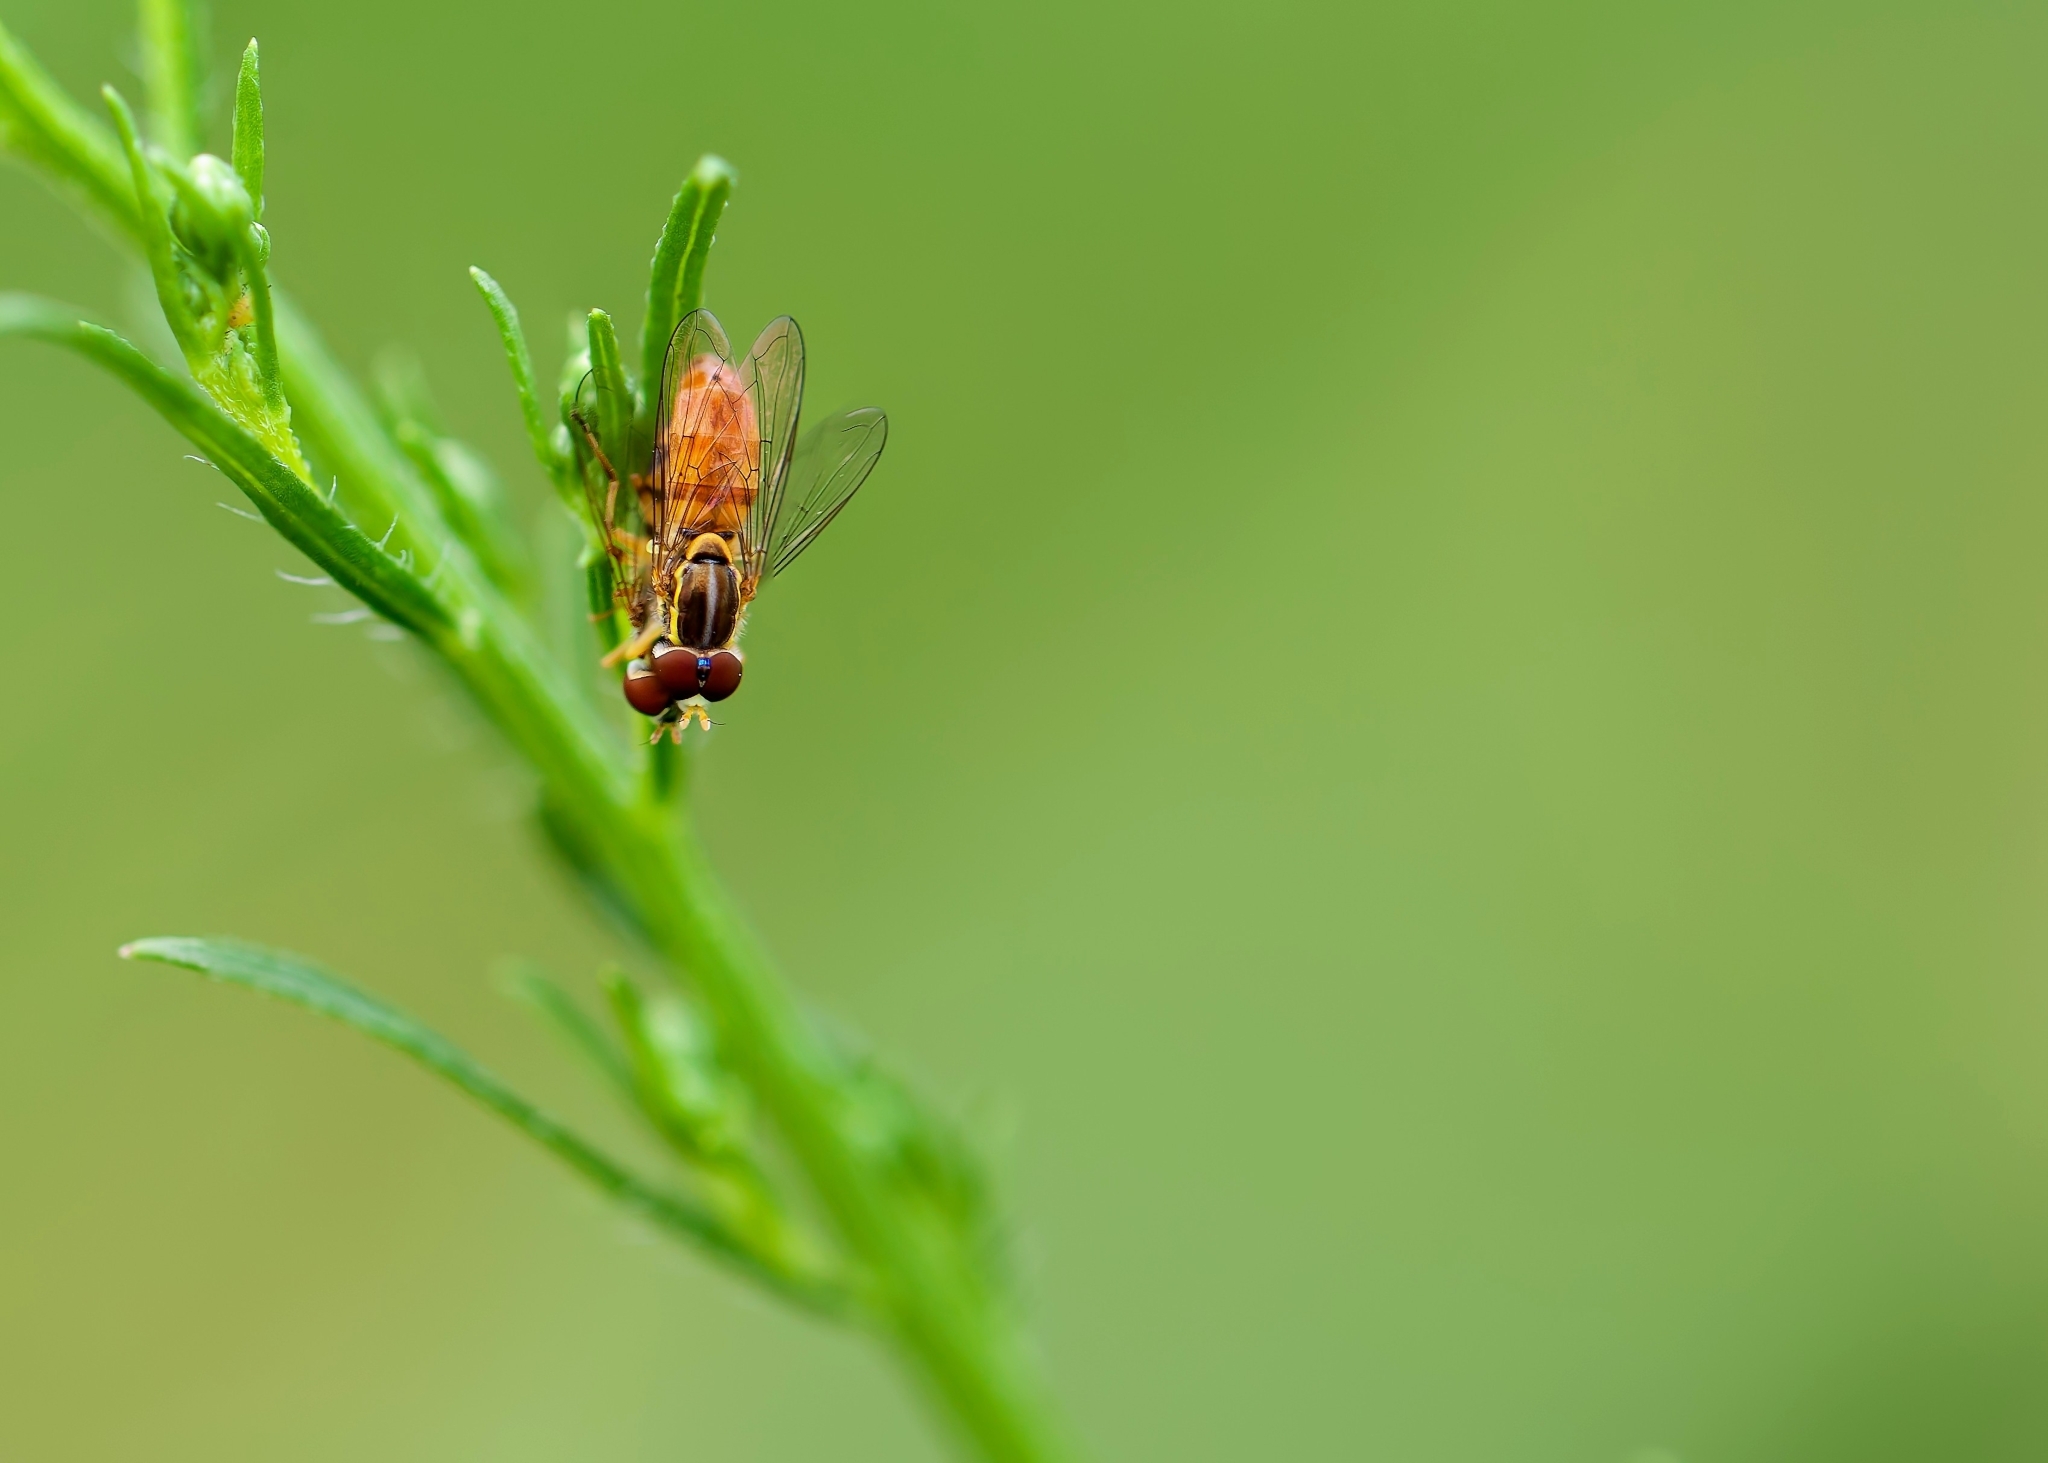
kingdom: Animalia
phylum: Arthropoda
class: Insecta
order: Diptera
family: Syrphidae
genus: Toxomerus
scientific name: Toxomerus floralis
